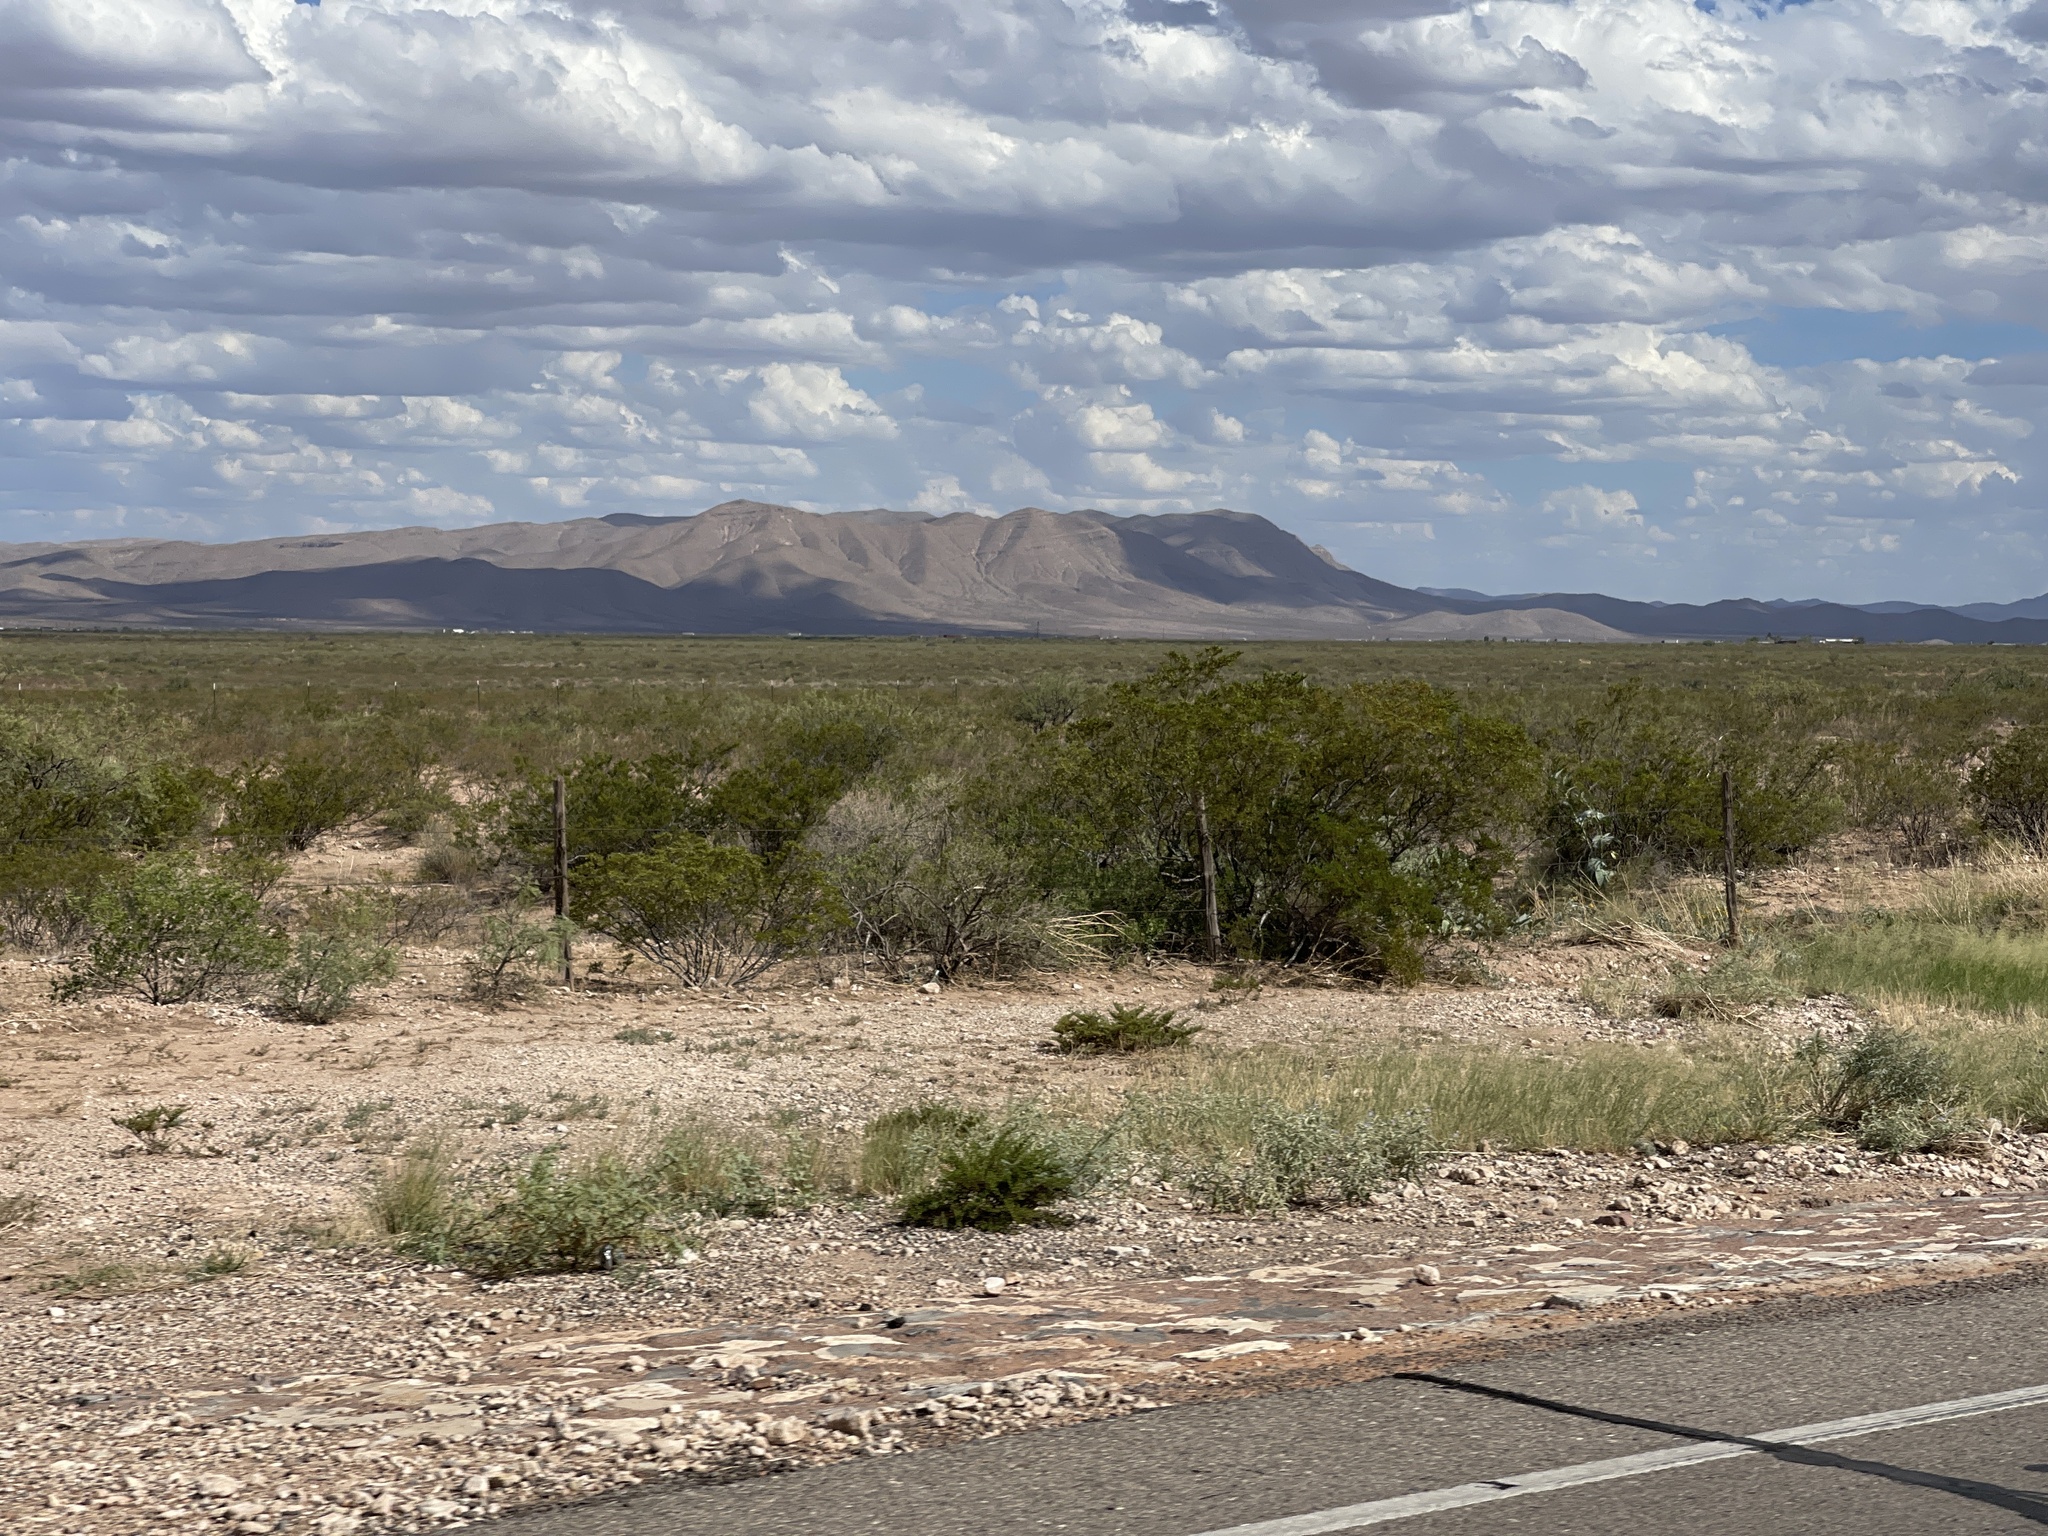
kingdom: Plantae
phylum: Tracheophyta
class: Magnoliopsida
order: Zygophyllales
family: Zygophyllaceae
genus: Larrea
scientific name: Larrea tridentata
